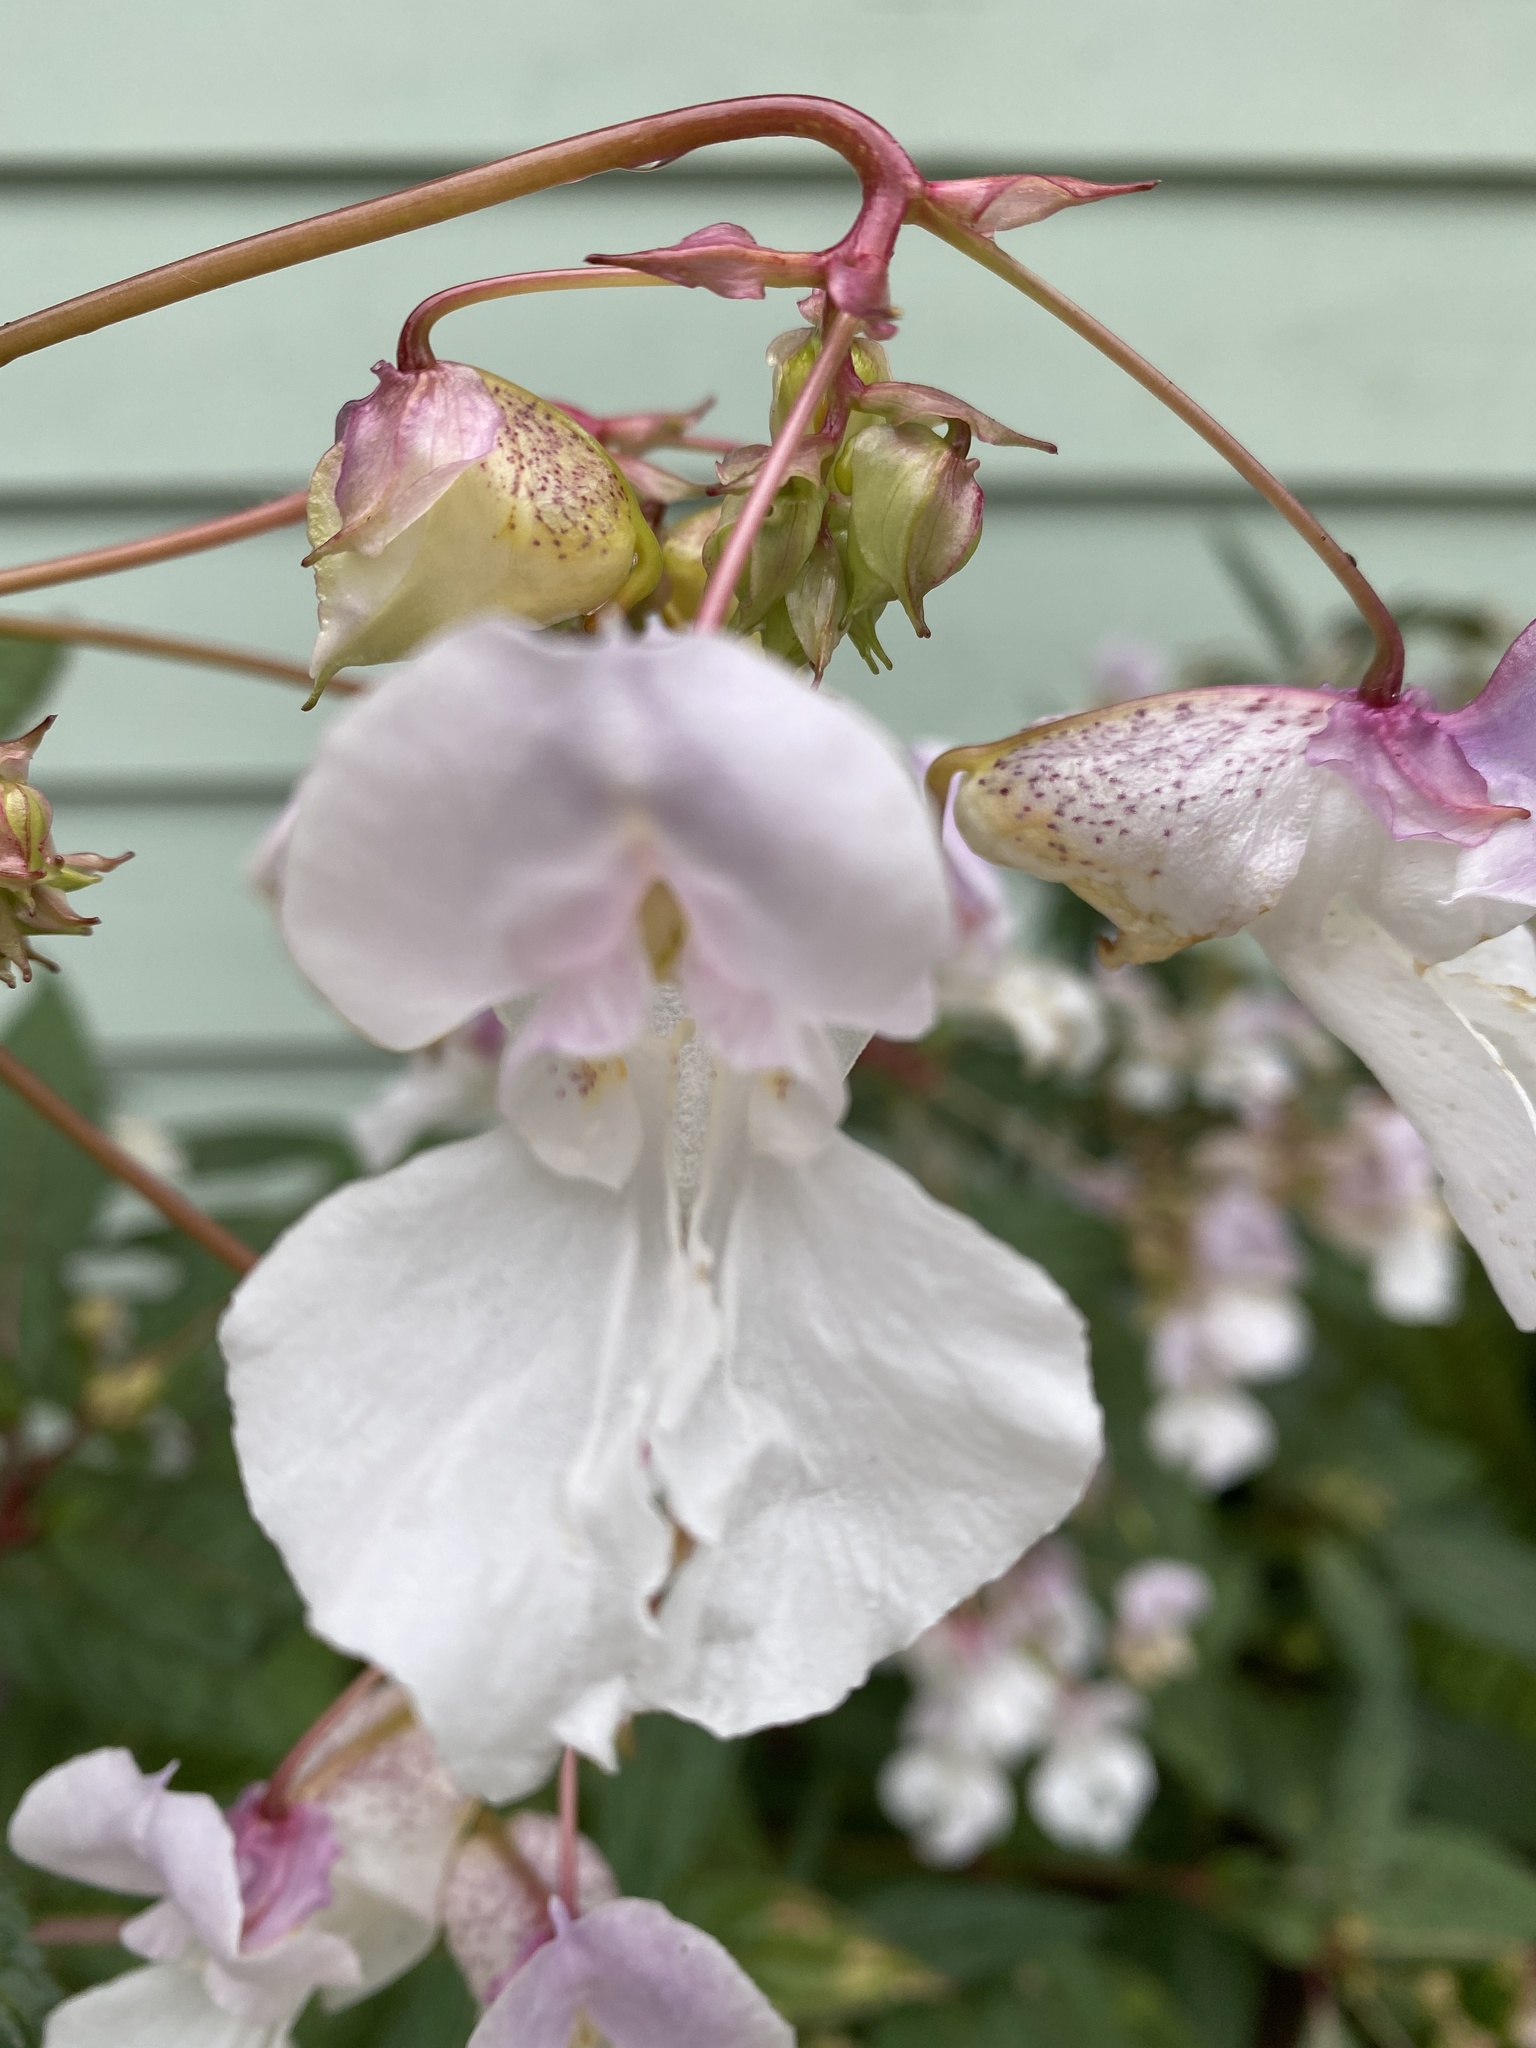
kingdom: Plantae
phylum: Tracheophyta
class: Magnoliopsida
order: Ericales
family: Balsaminaceae
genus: Impatiens
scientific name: Impatiens glandulifera
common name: Himalayan balsam
